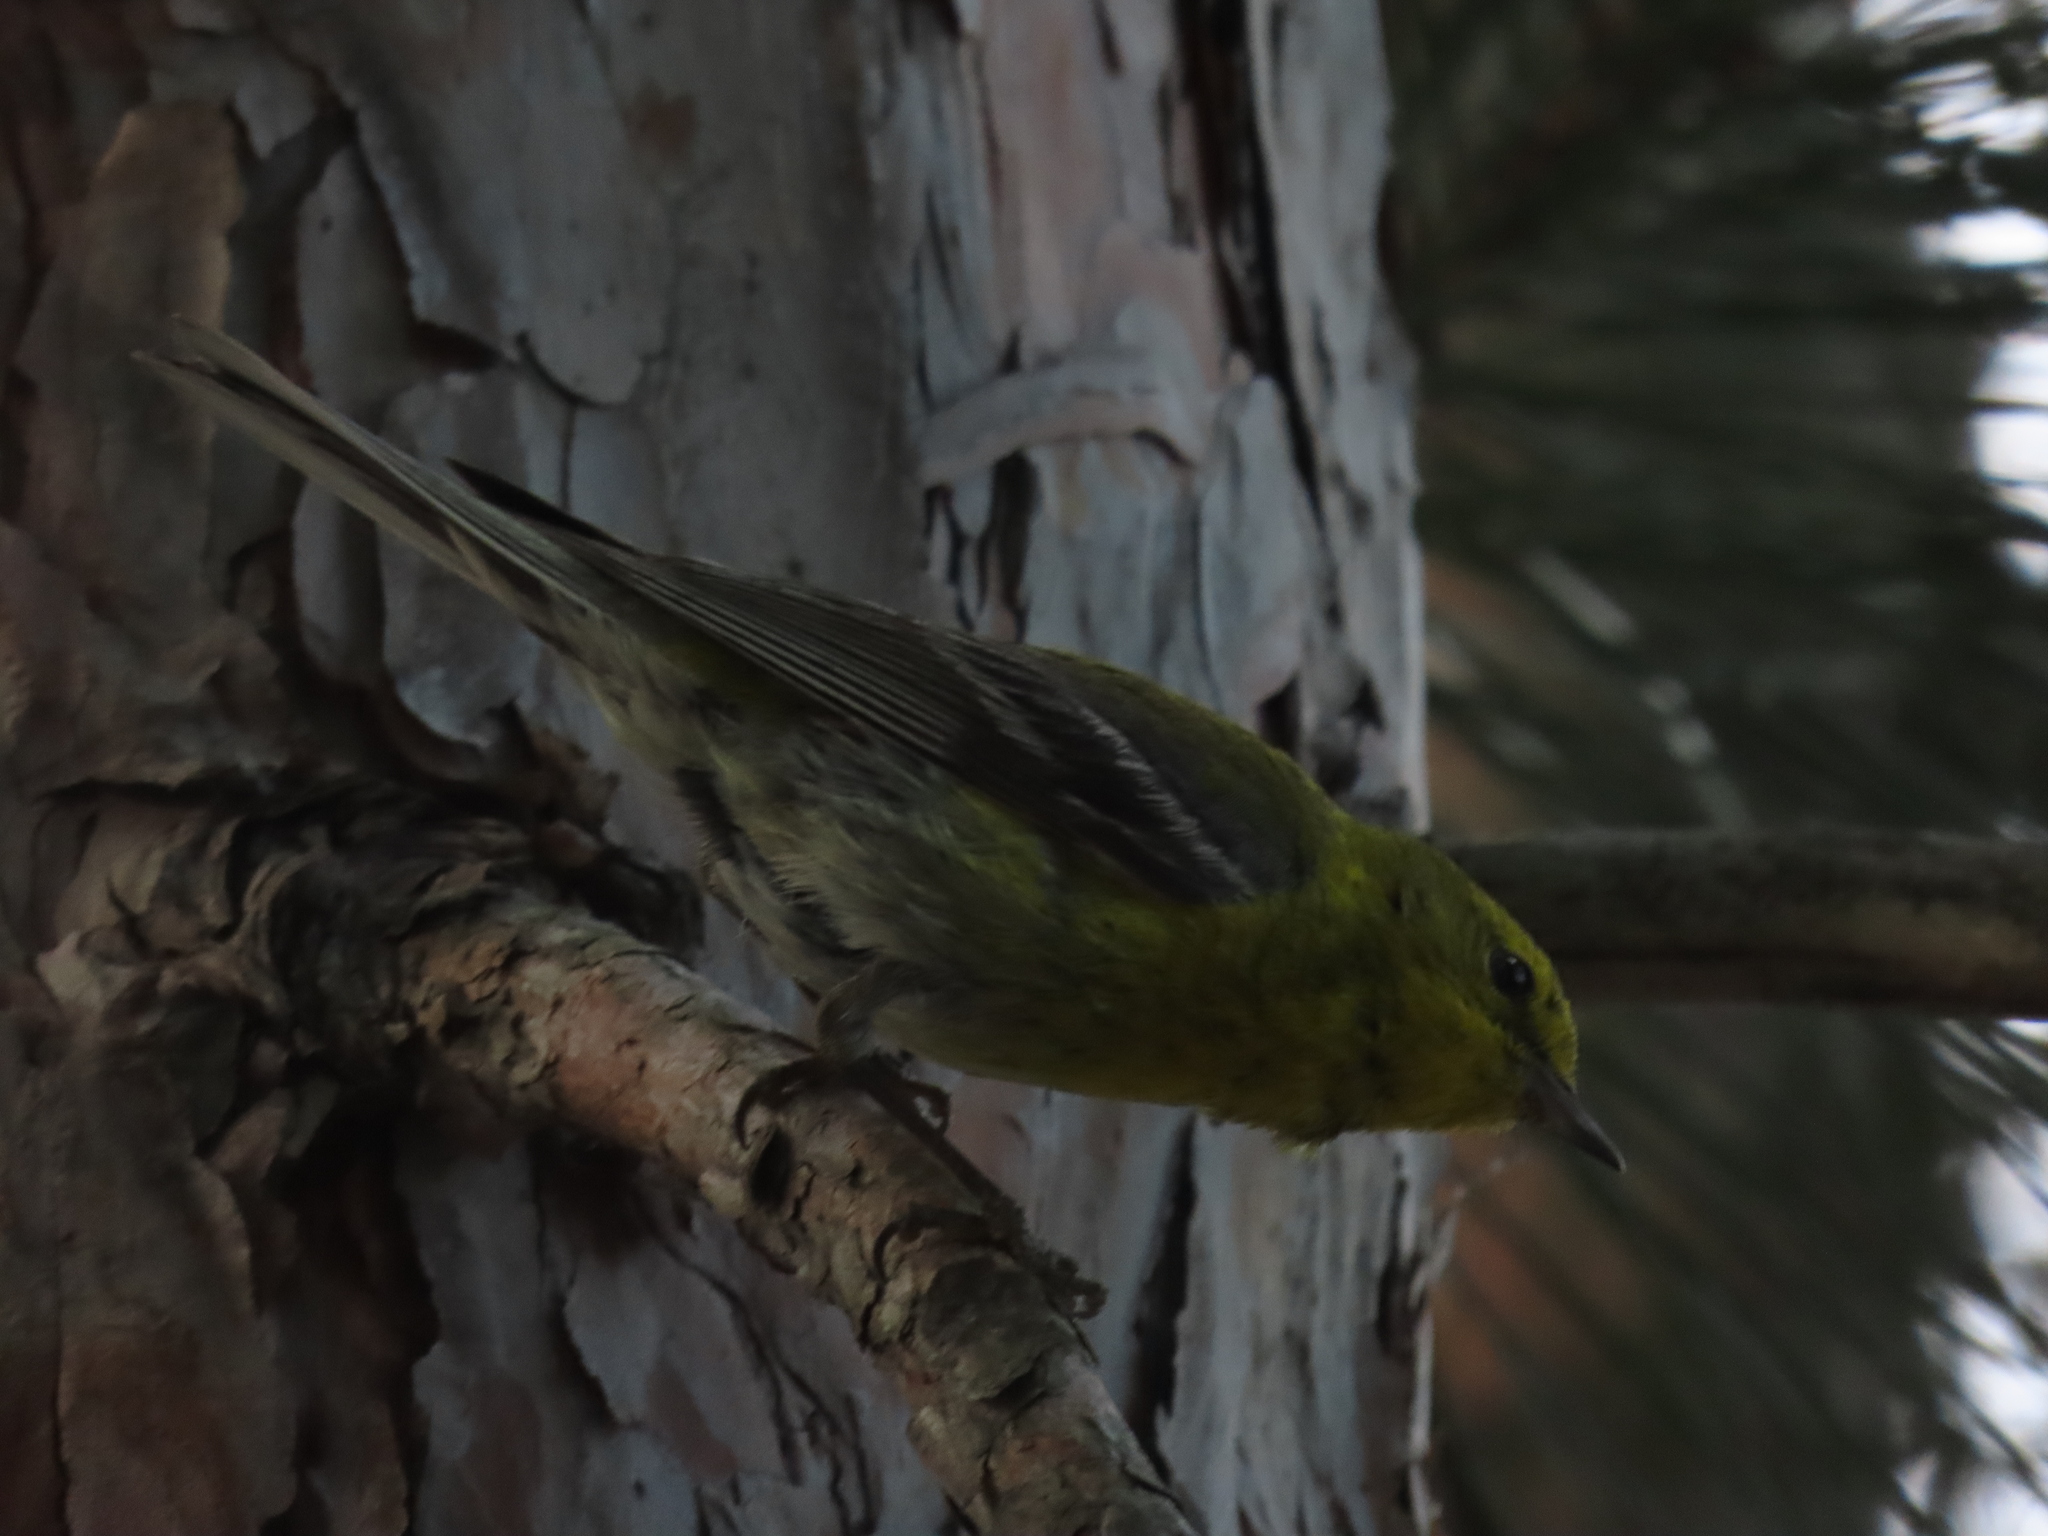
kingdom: Animalia
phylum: Chordata
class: Aves
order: Passeriformes
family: Parulidae
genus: Setophaga
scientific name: Setophaga pinus
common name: Pine warbler
